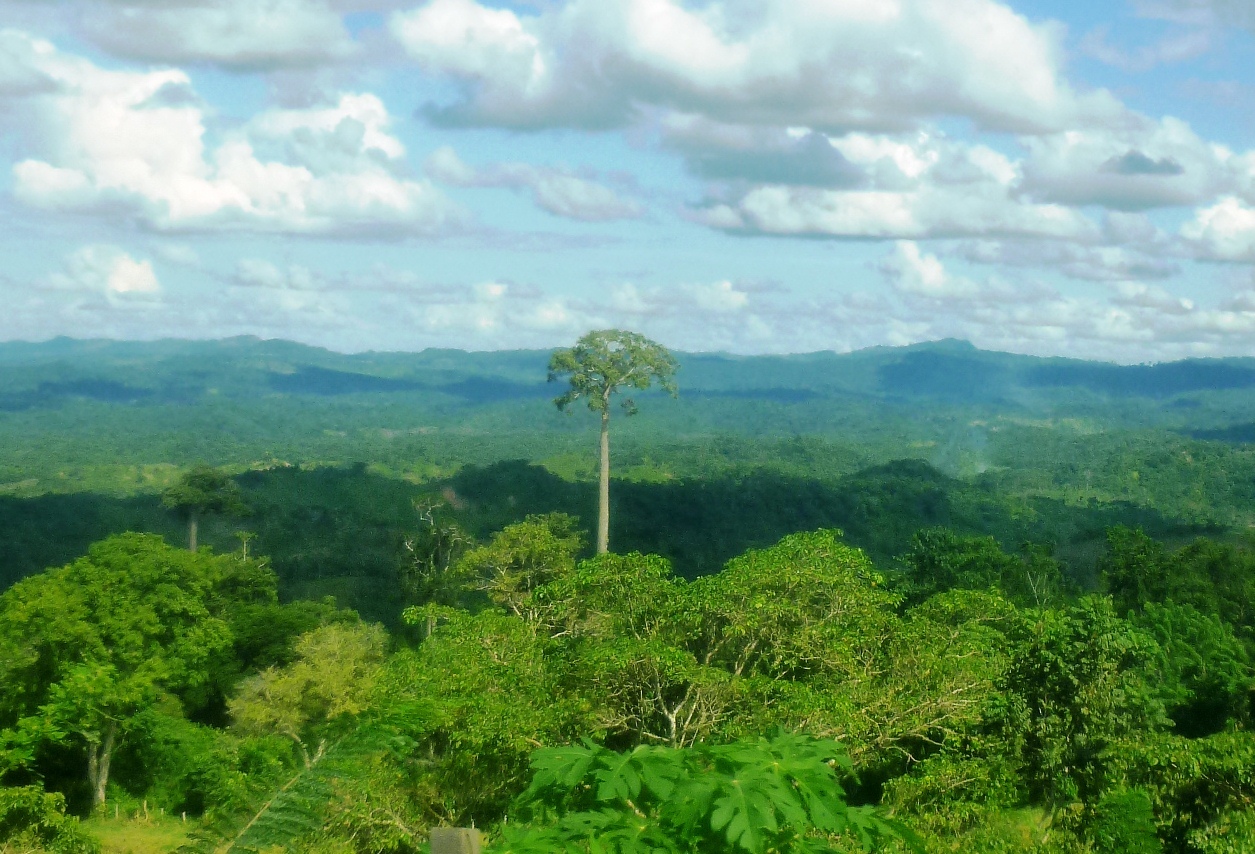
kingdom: Plantae
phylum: Tracheophyta
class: Magnoliopsida
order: Malvales
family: Malvaceae
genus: Cavanillesia
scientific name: Cavanillesia platanifolia
